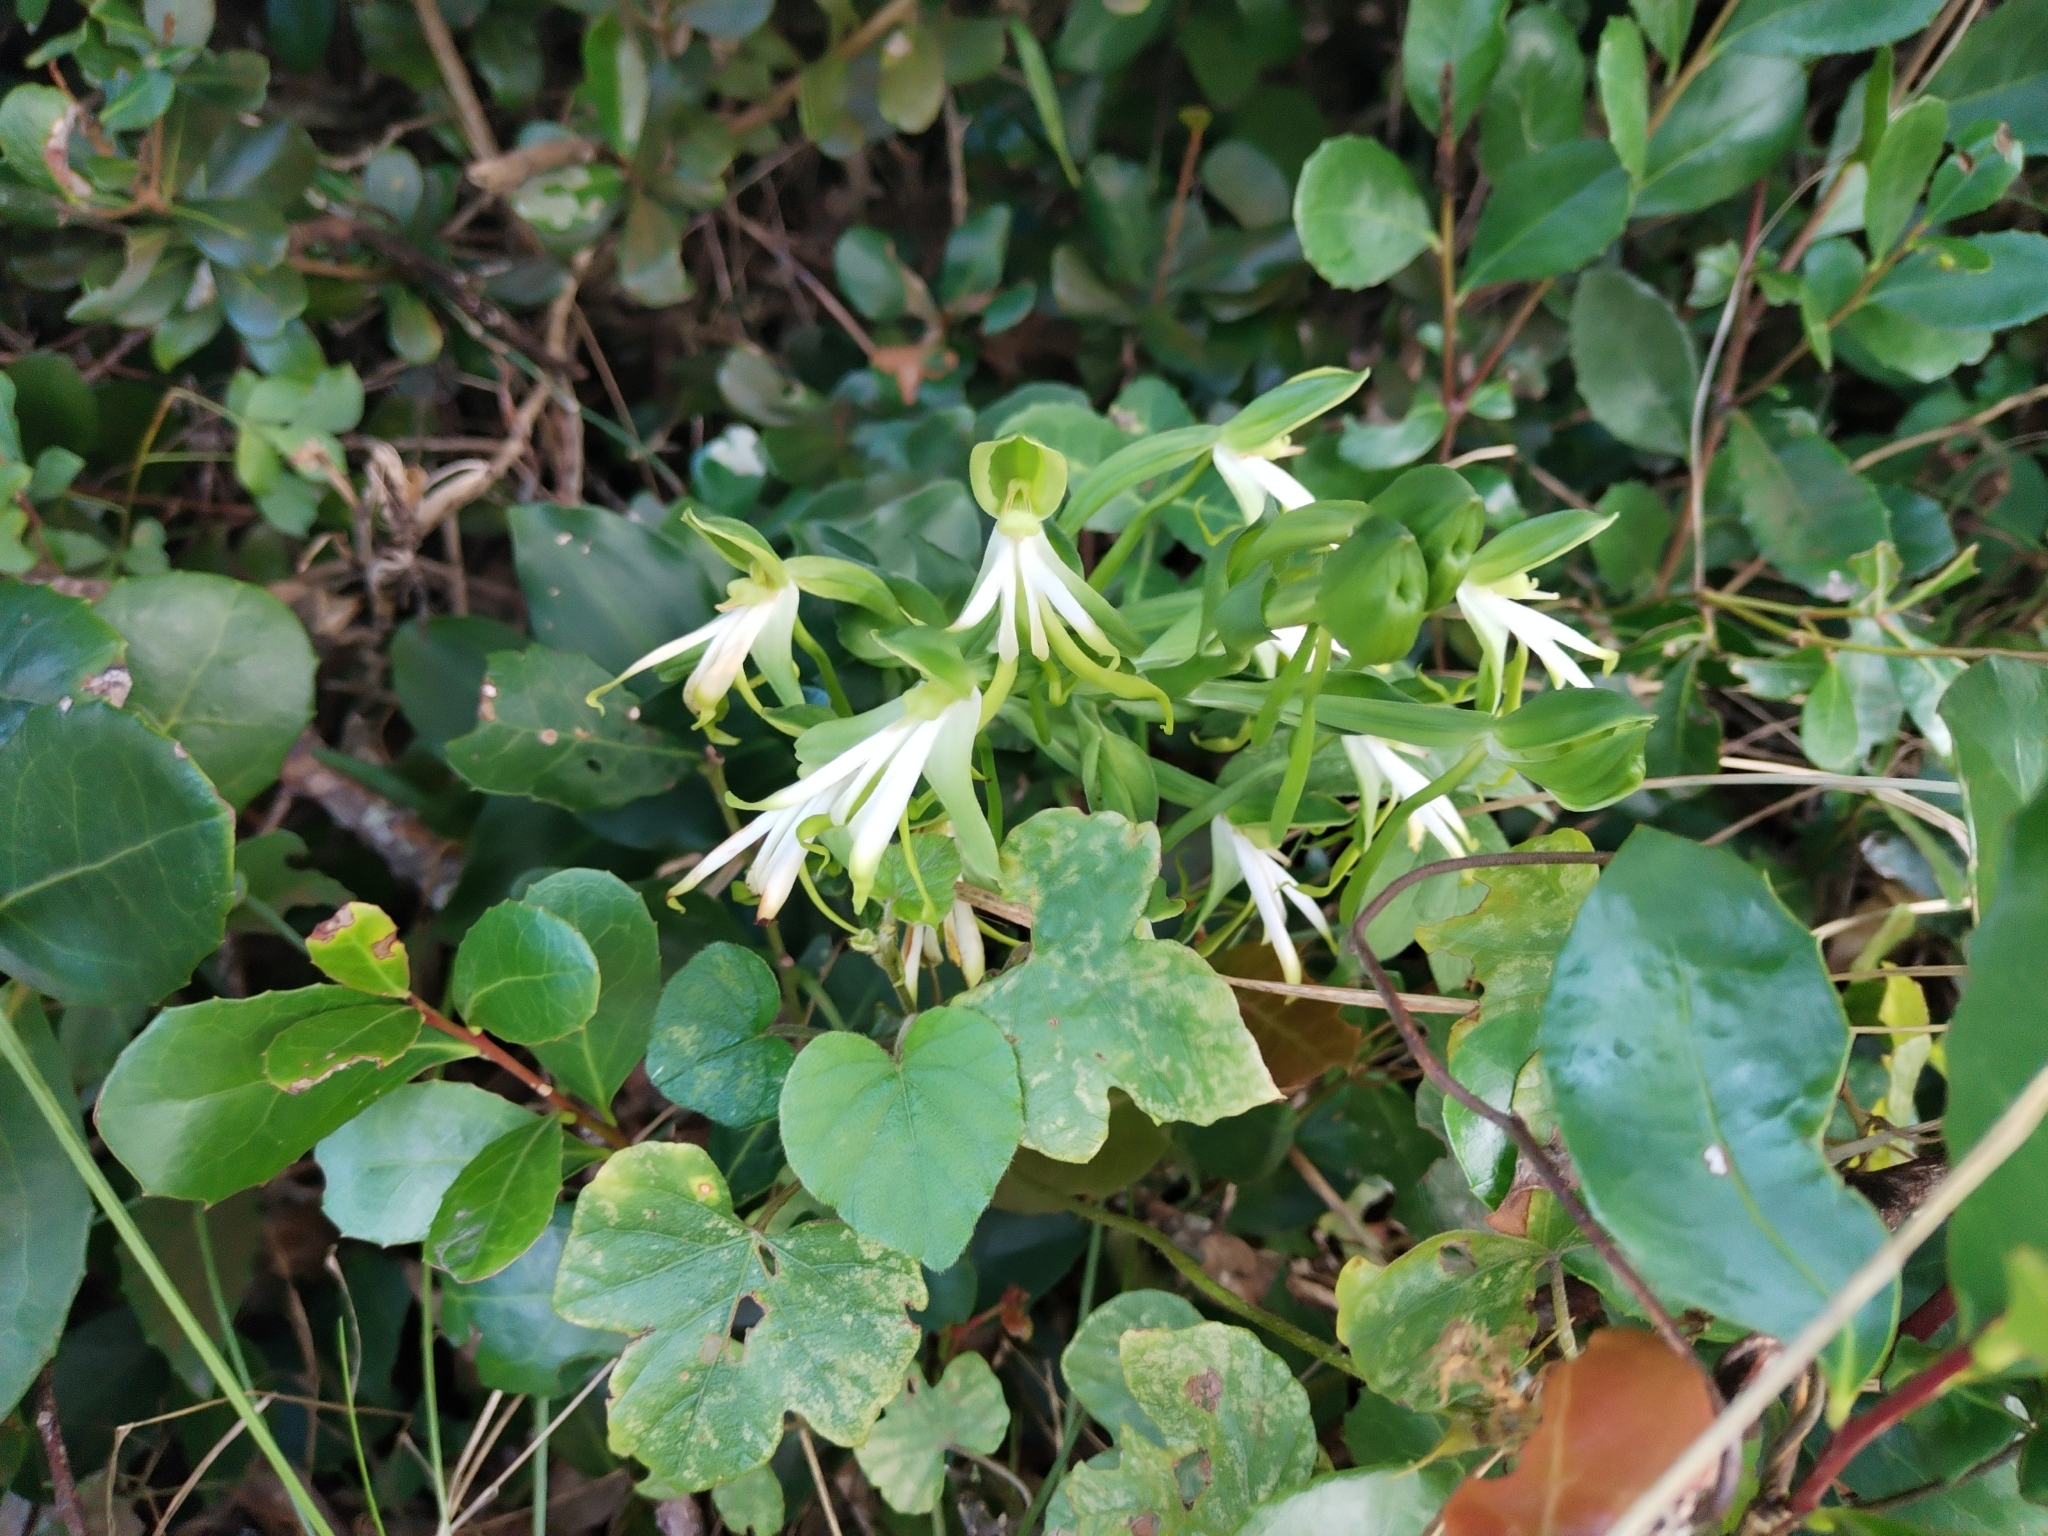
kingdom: Plantae
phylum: Tracheophyta
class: Liliopsida
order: Asparagales
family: Orchidaceae
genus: Bonatea
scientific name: Bonatea speciosa
